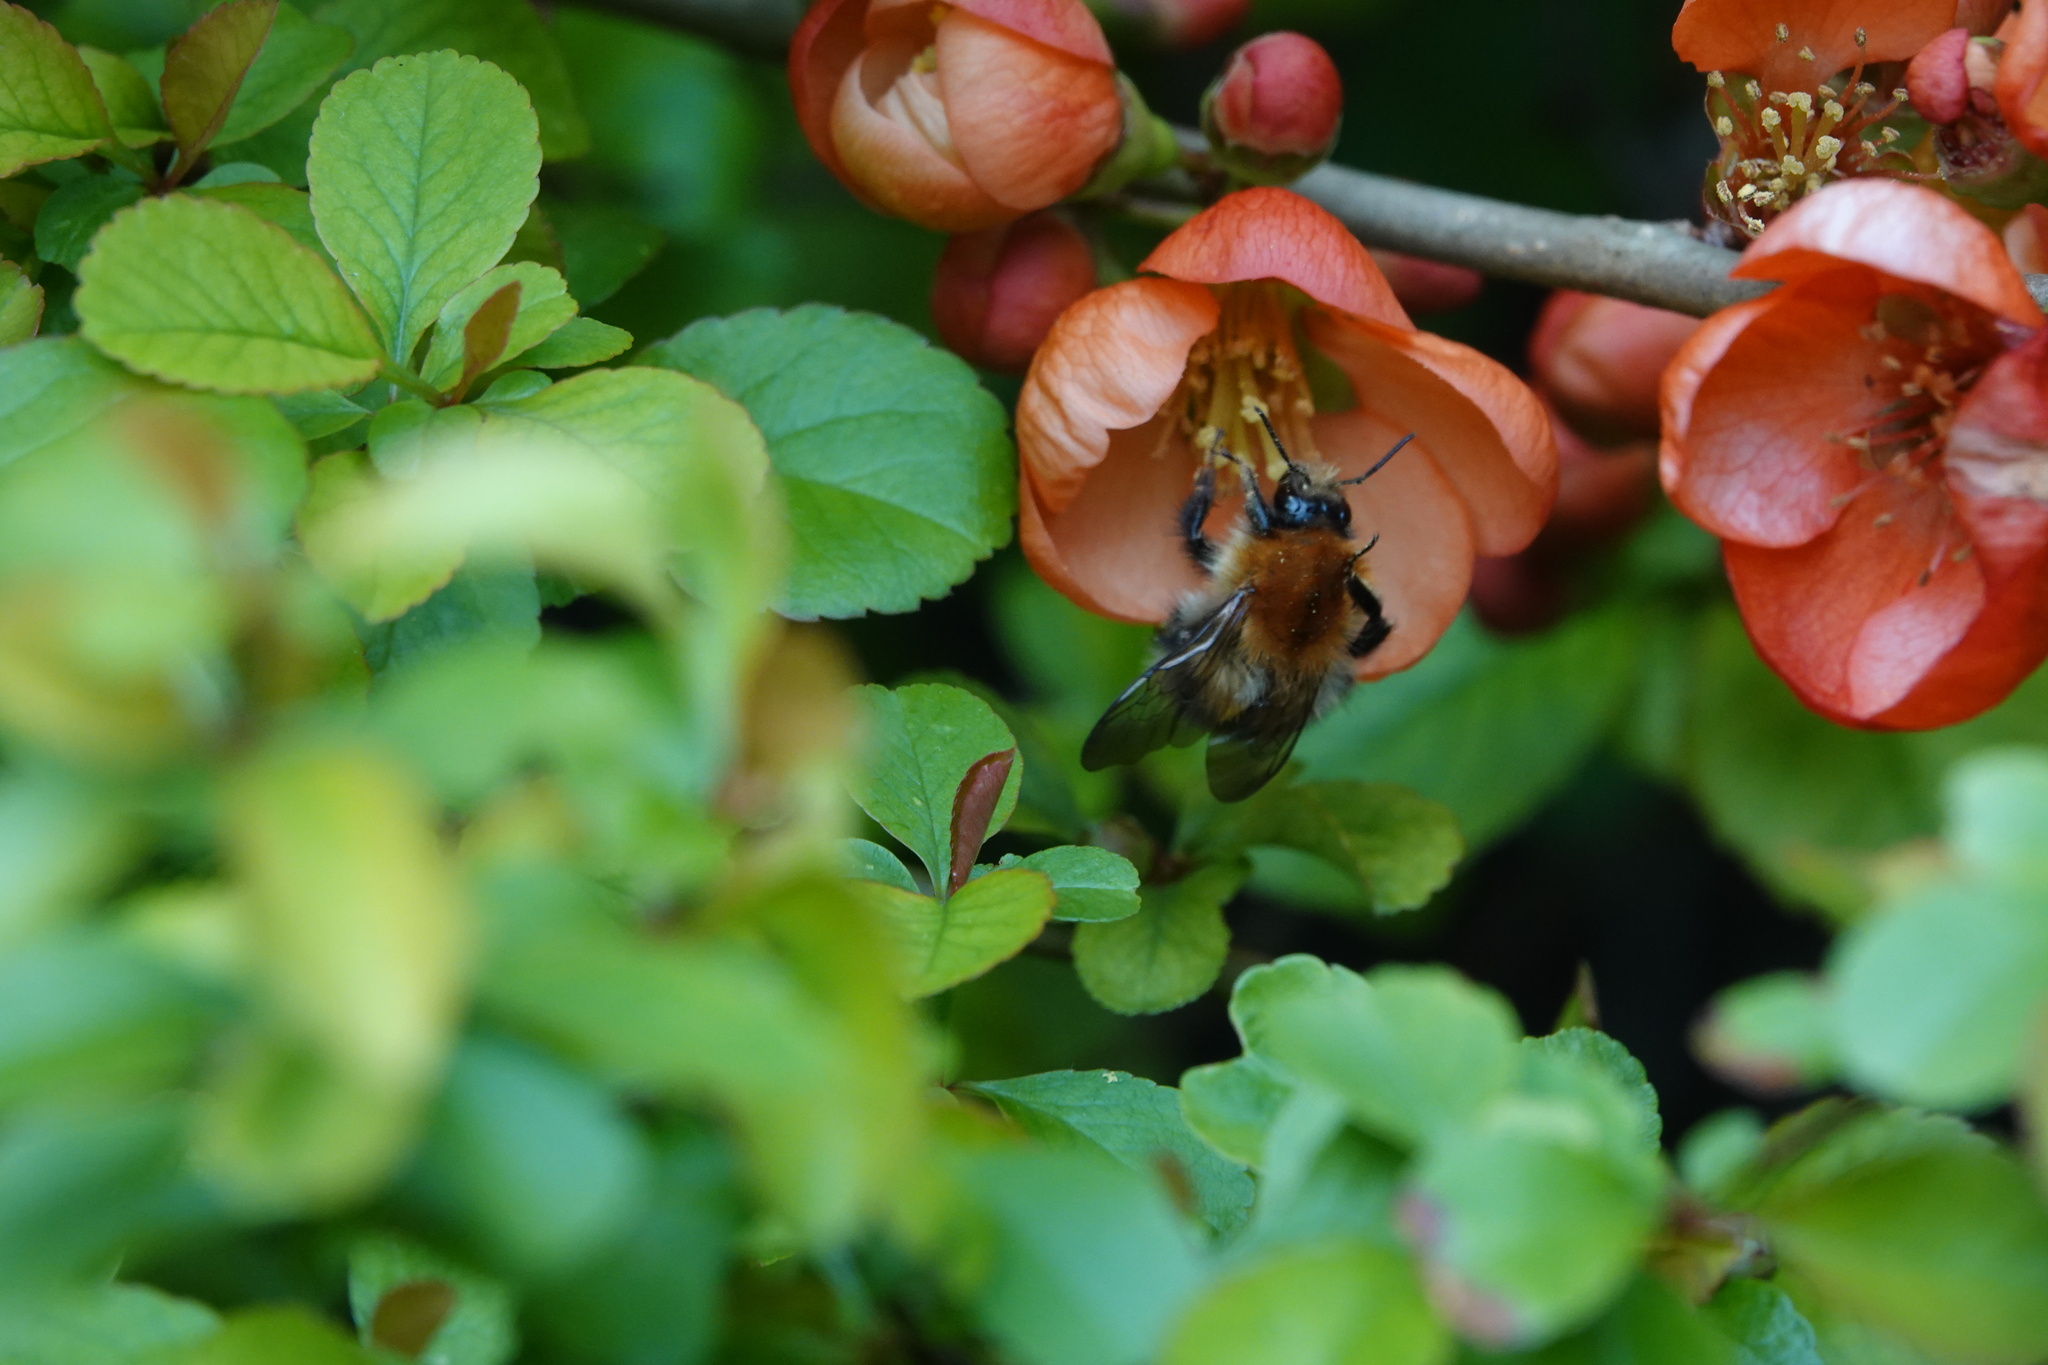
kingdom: Animalia
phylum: Arthropoda
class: Insecta
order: Hymenoptera
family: Apidae
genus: Bombus
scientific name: Bombus pascuorum
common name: Common carder bee
